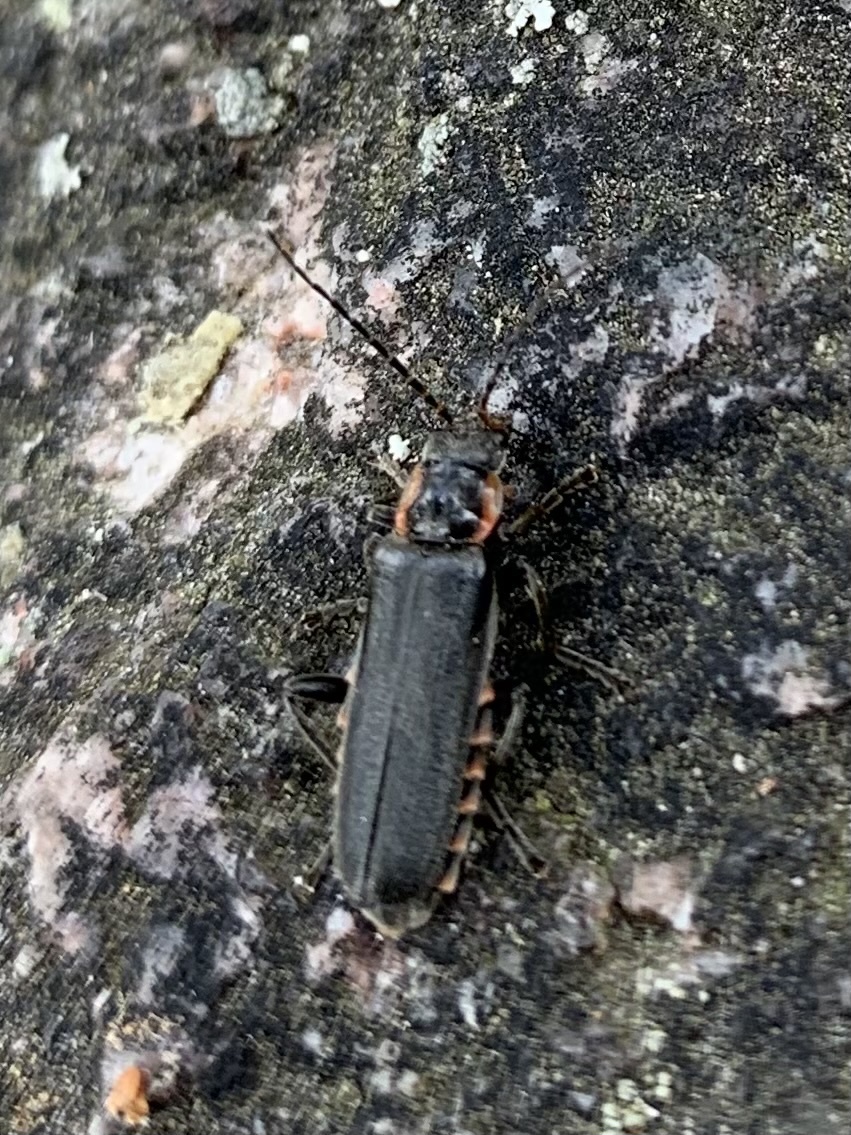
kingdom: Animalia
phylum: Arthropoda
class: Insecta
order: Coleoptera
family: Cantharidae
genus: Cantharis
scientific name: Cantharis obscura
